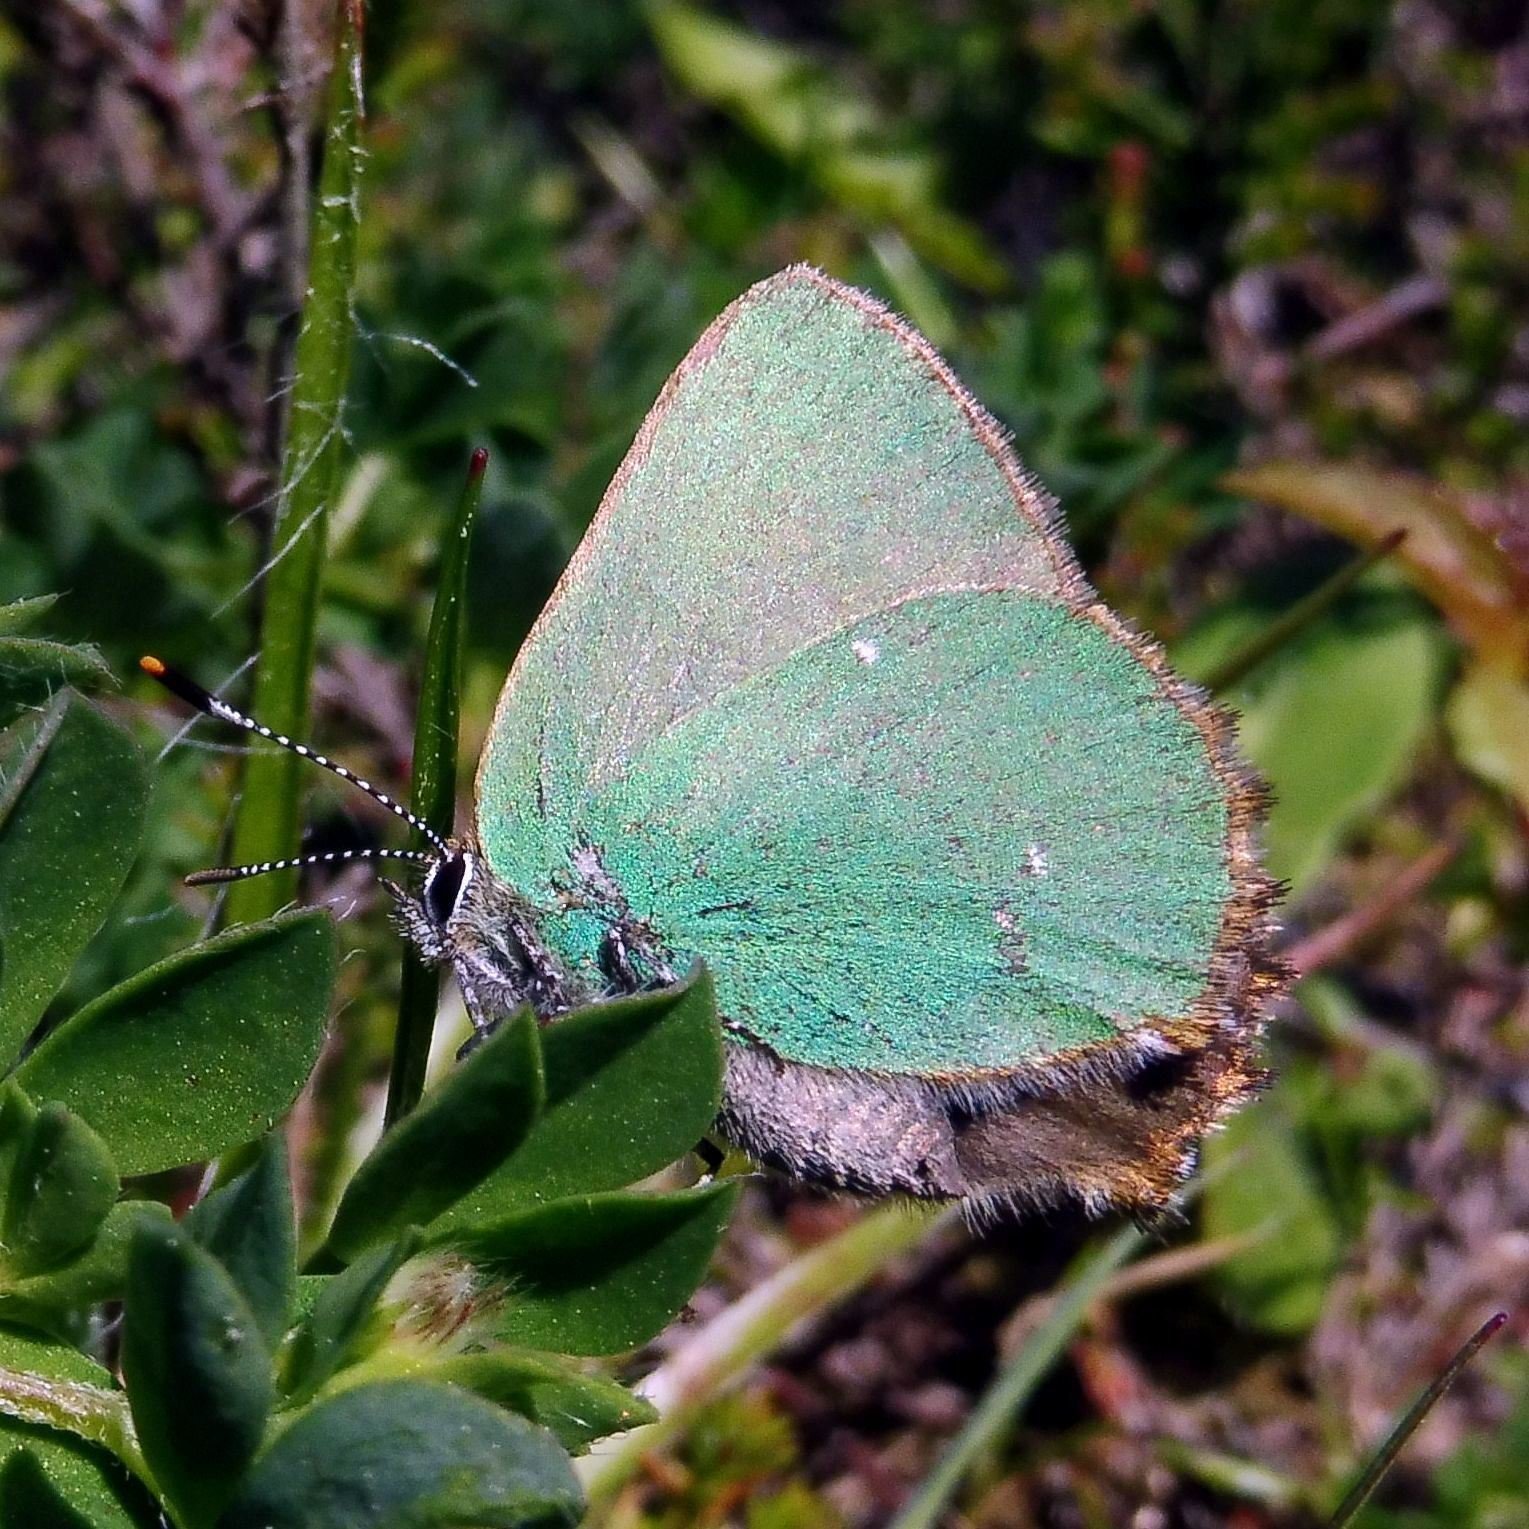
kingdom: Animalia
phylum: Arthropoda
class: Insecta
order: Lepidoptera
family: Lycaenidae
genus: Callophrys
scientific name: Callophrys rubi
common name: Green hairstreak
